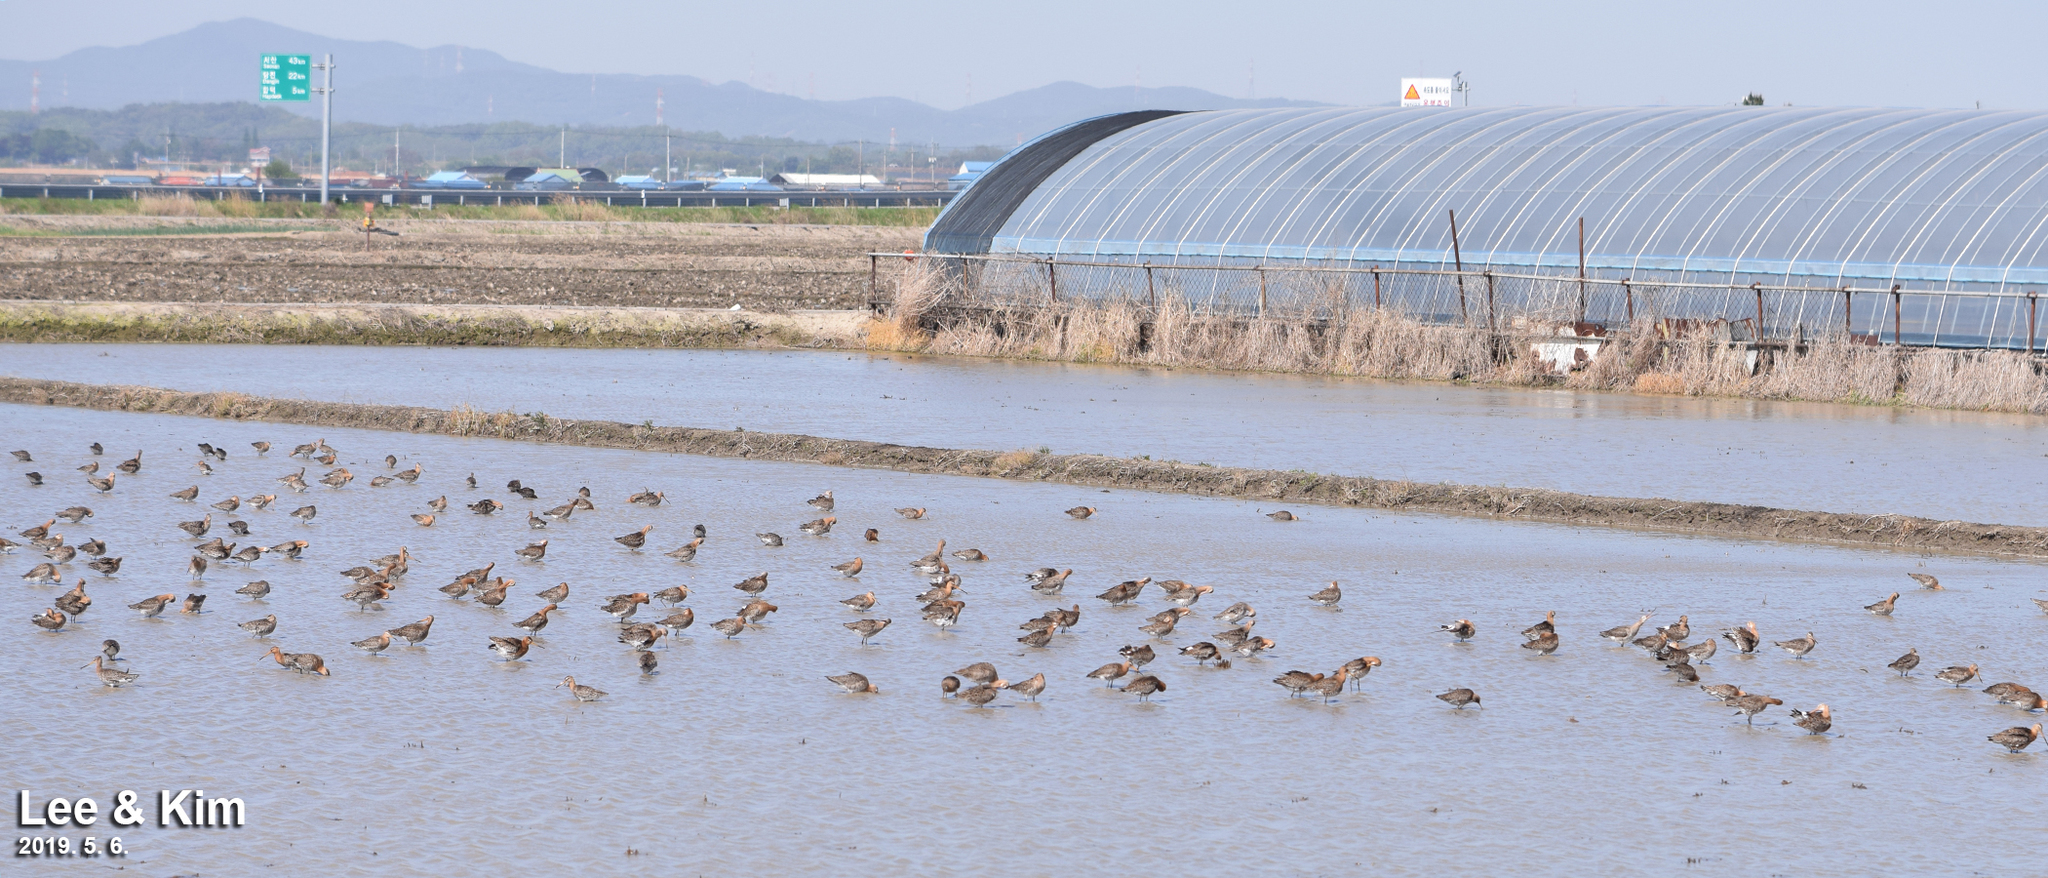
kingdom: Animalia
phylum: Chordata
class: Aves
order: Charadriiformes
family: Scolopacidae
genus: Limosa
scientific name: Limosa limosa
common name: Black-tailed godwit
